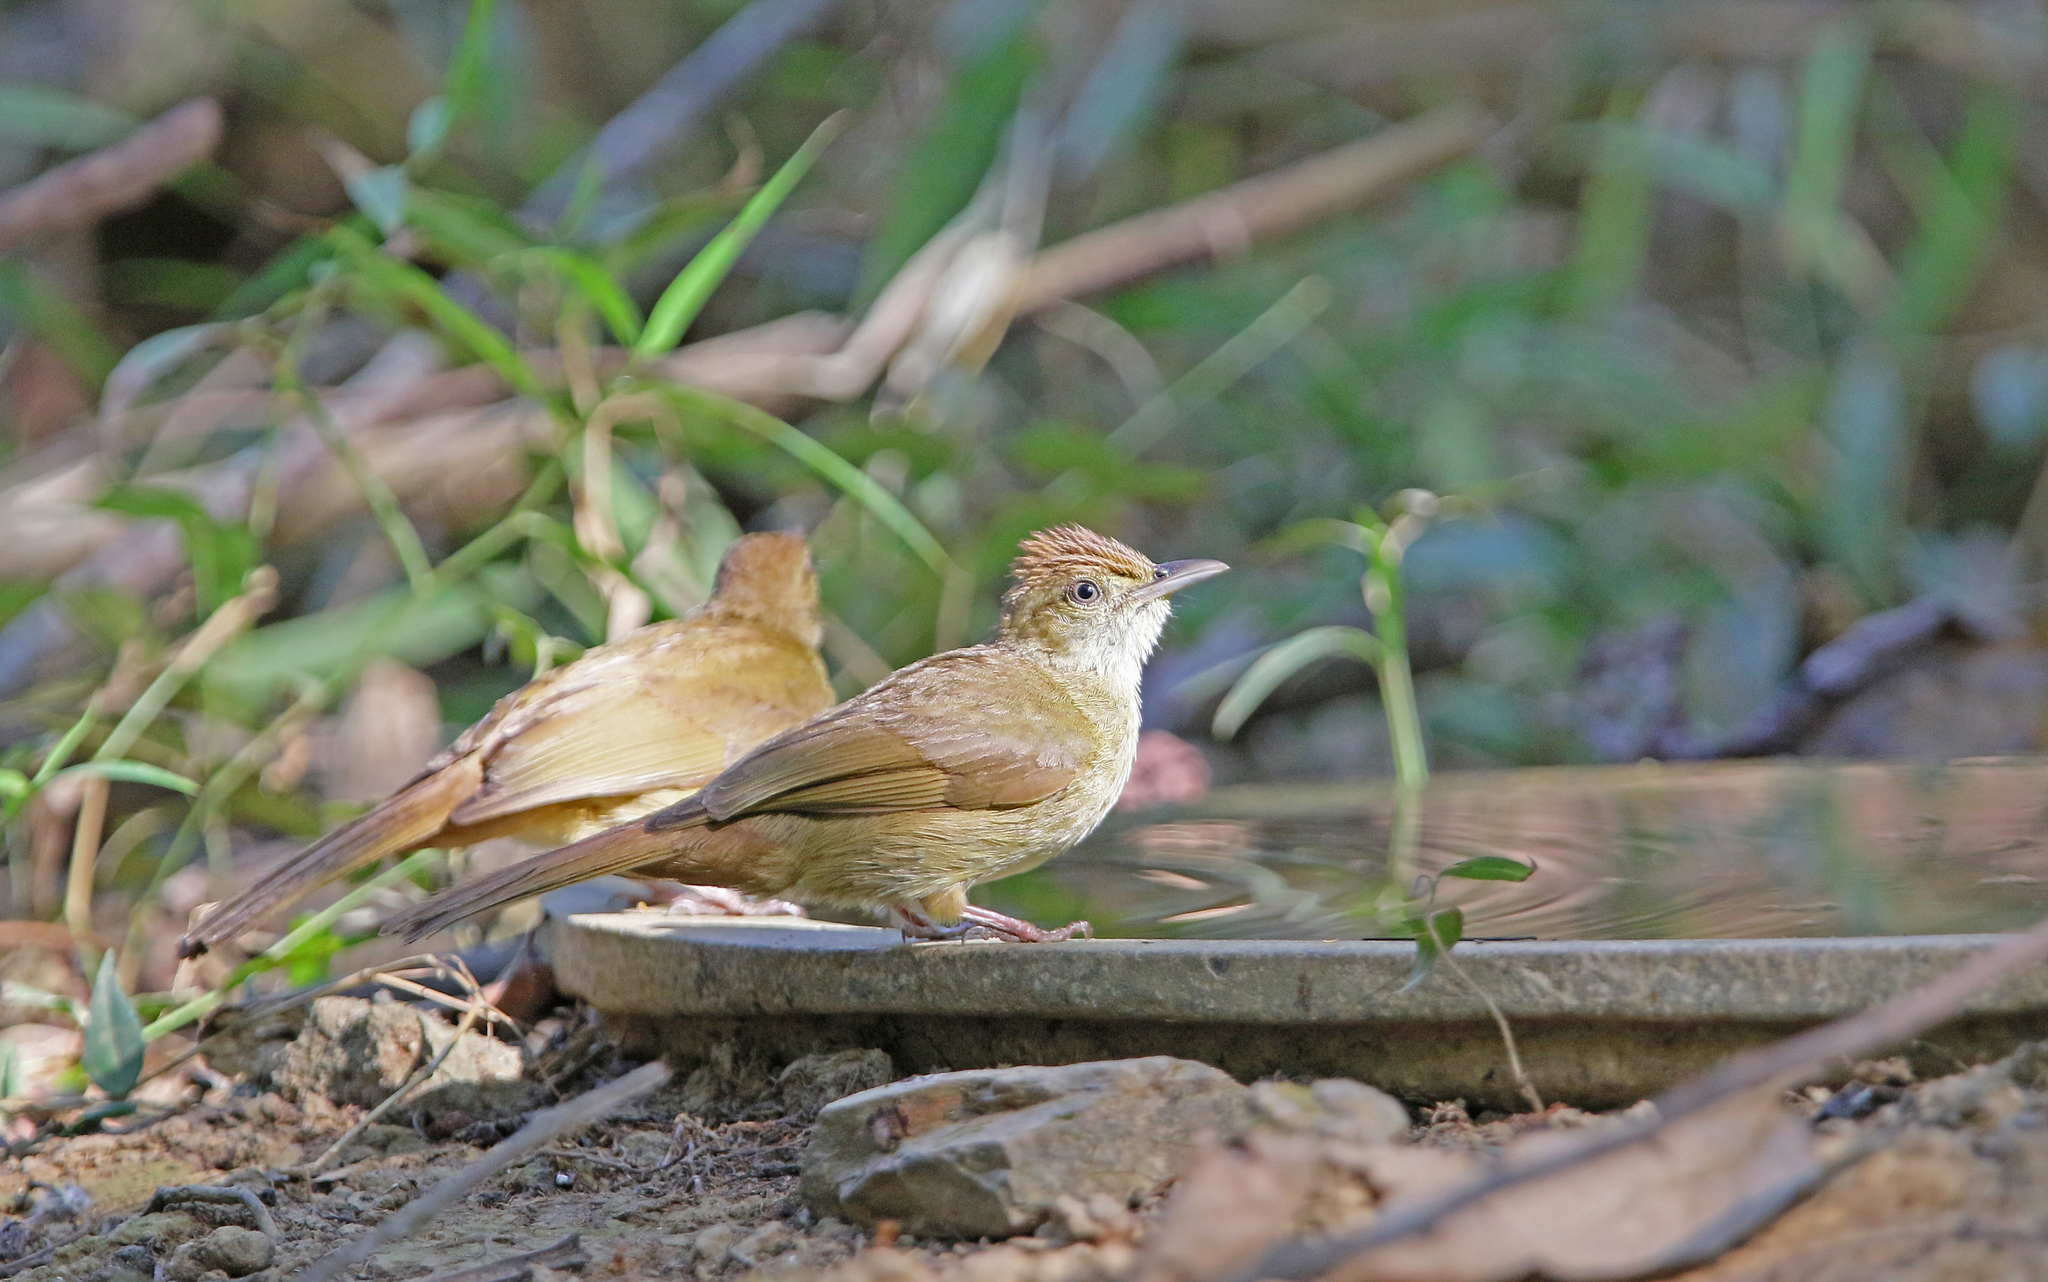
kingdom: Animalia
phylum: Chordata
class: Aves
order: Passeriformes
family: Pycnonotidae
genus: Iole
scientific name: Iole propinqua
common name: Grey-eyed bulbul
